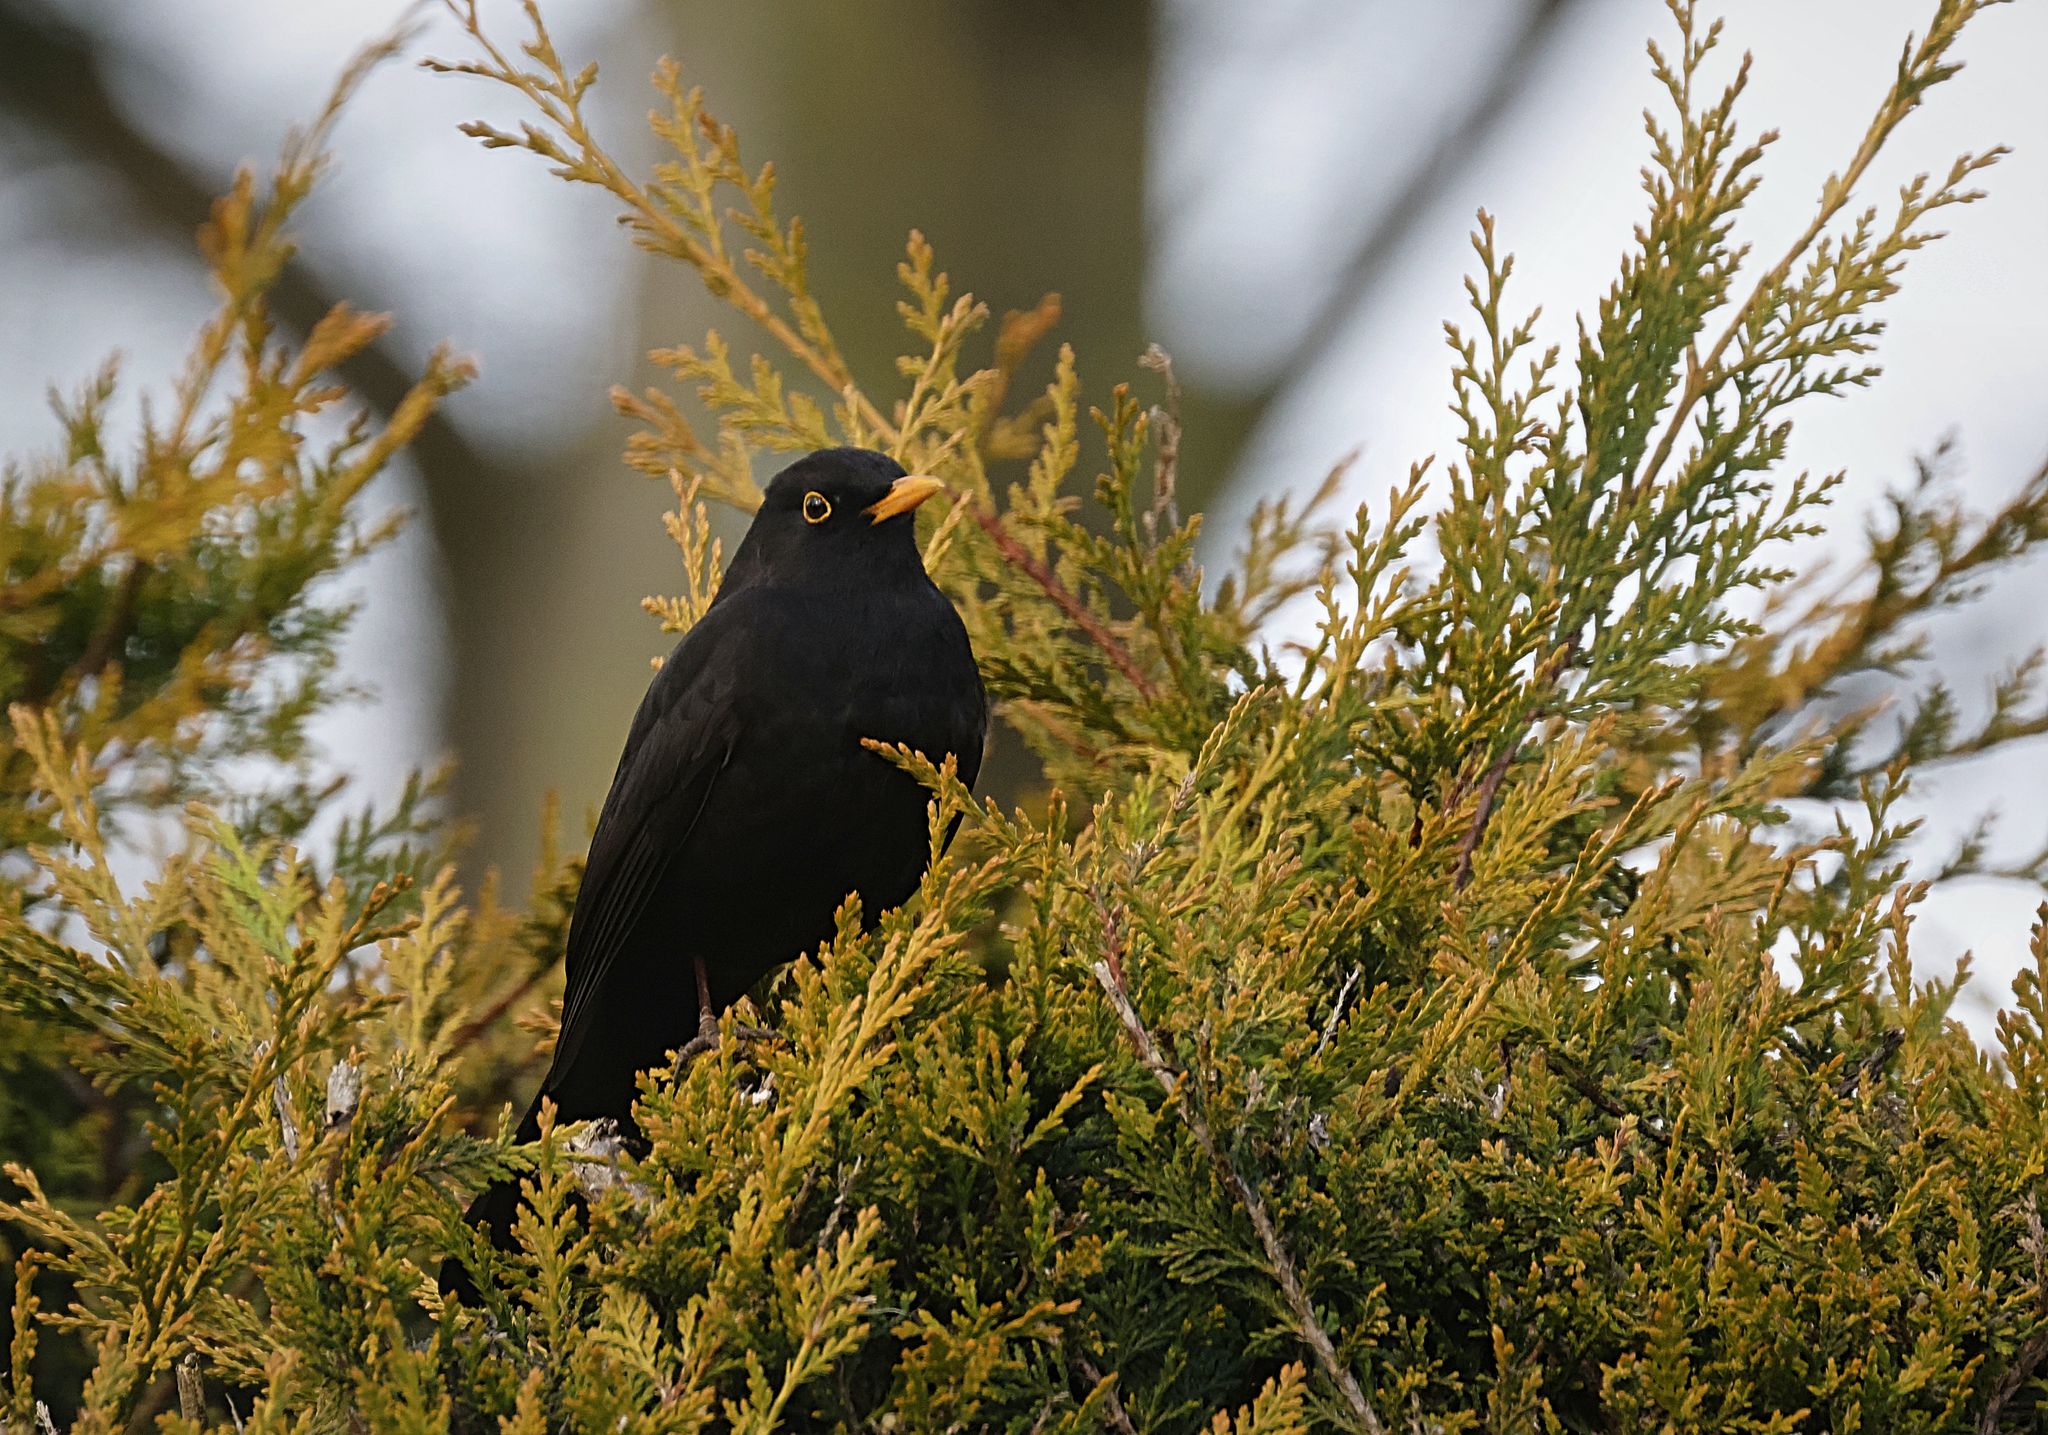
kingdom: Animalia
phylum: Chordata
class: Aves
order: Passeriformes
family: Turdidae
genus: Turdus
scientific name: Turdus merula
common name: Common blackbird
